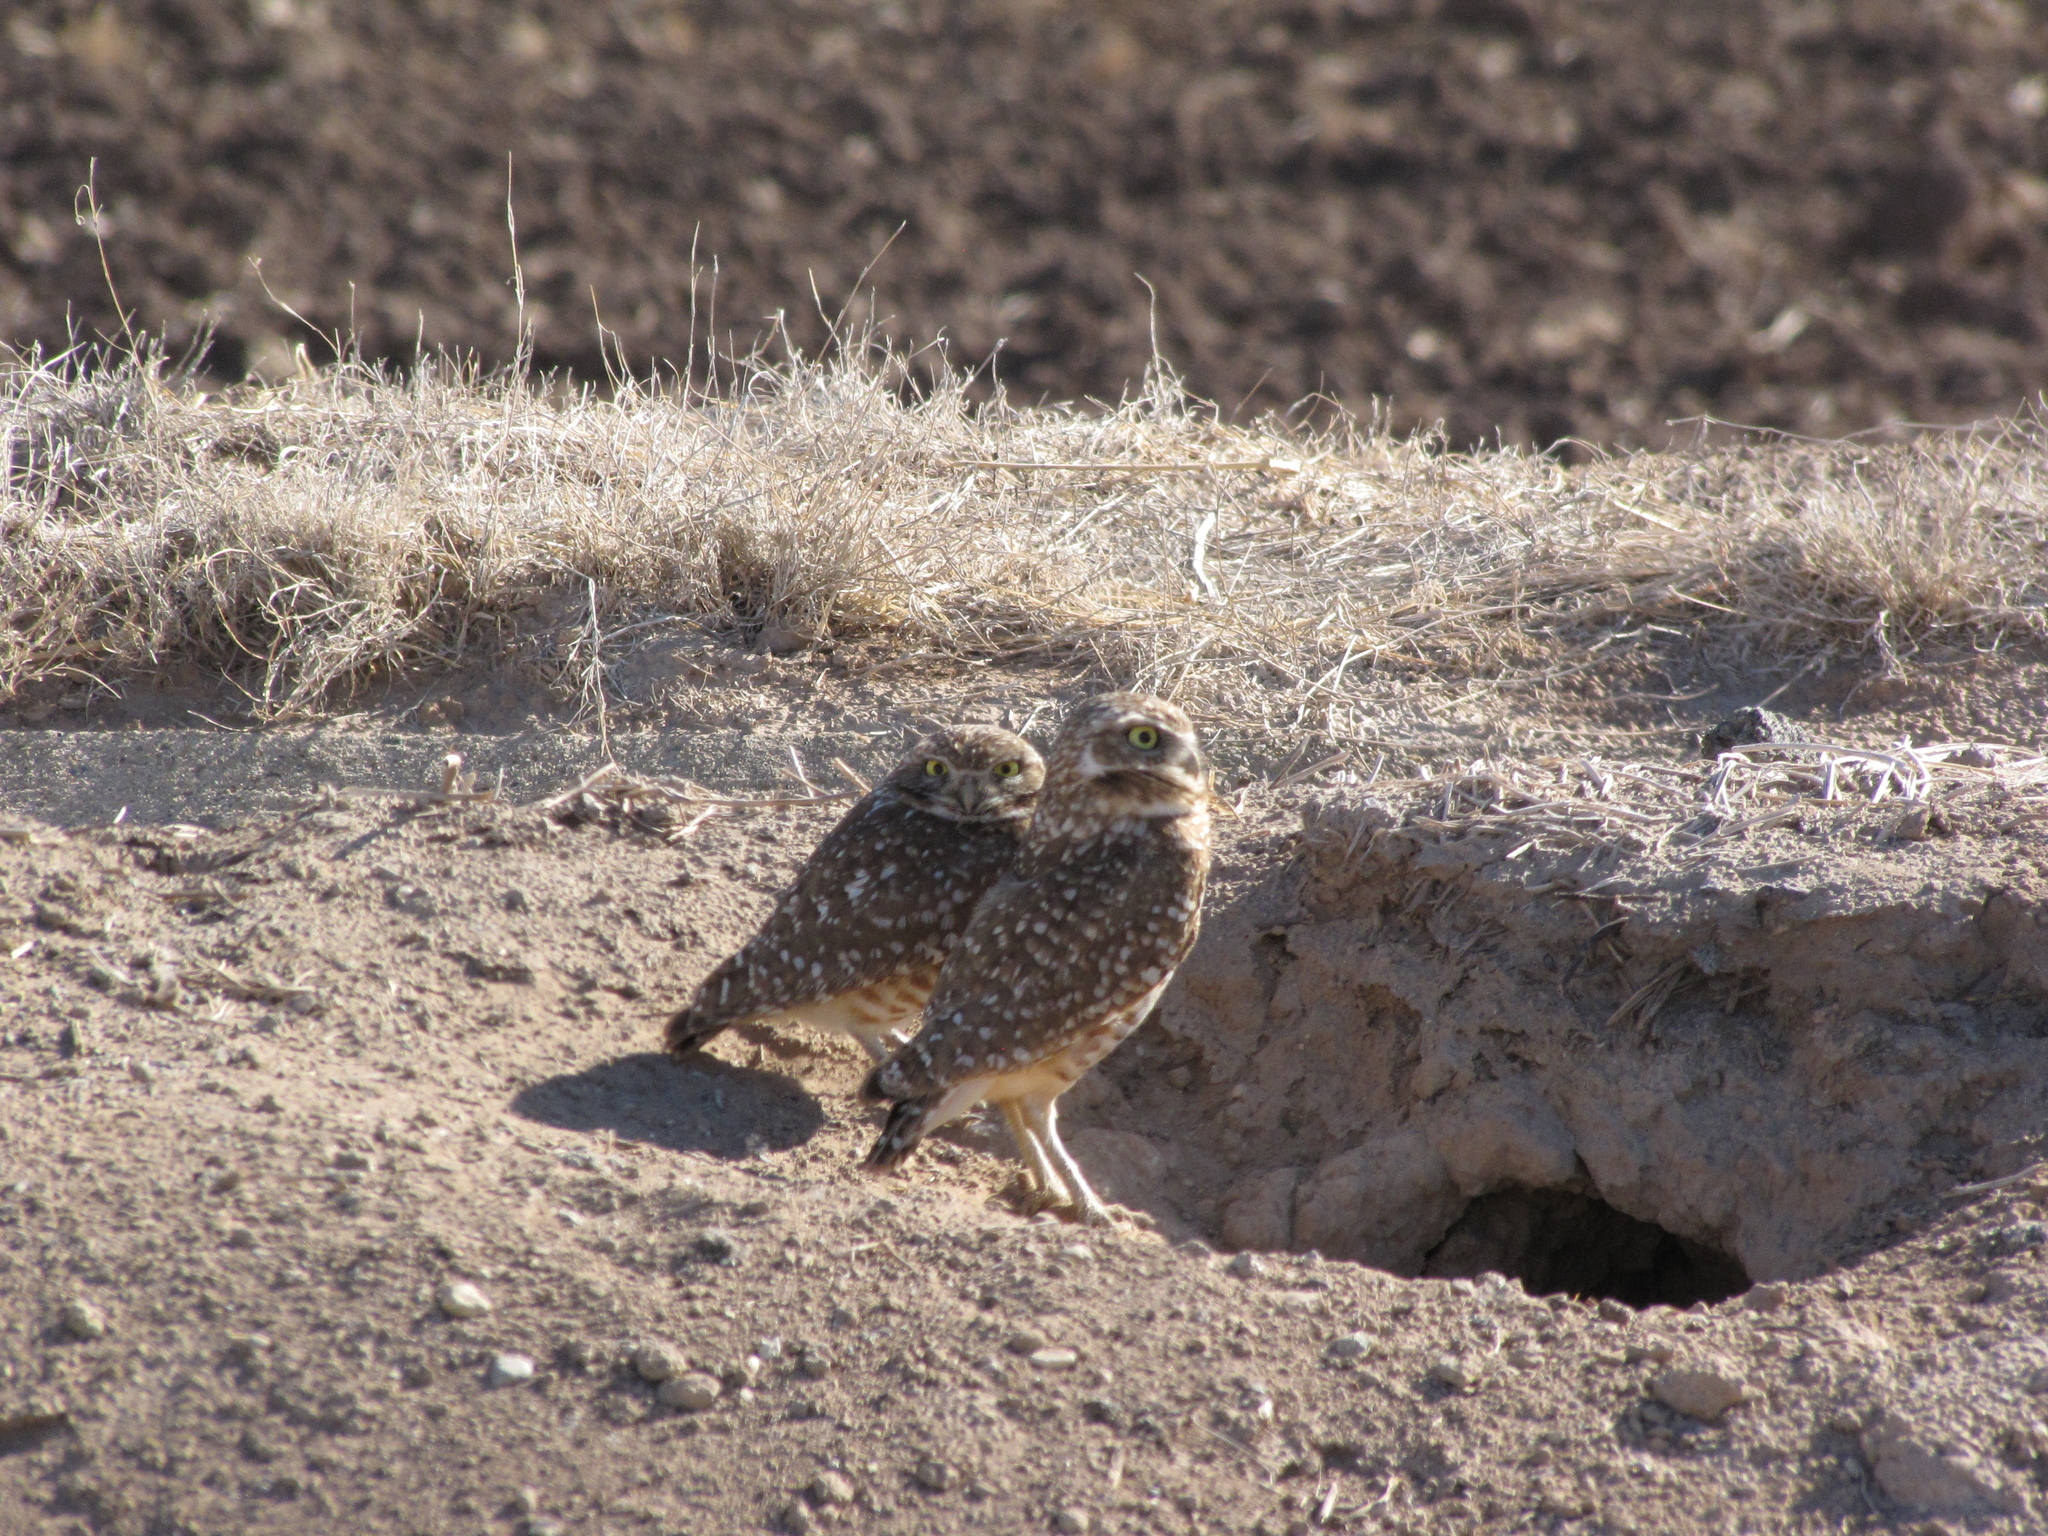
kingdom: Animalia
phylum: Chordata
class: Aves
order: Strigiformes
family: Strigidae
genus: Athene
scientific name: Athene cunicularia
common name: Burrowing owl
